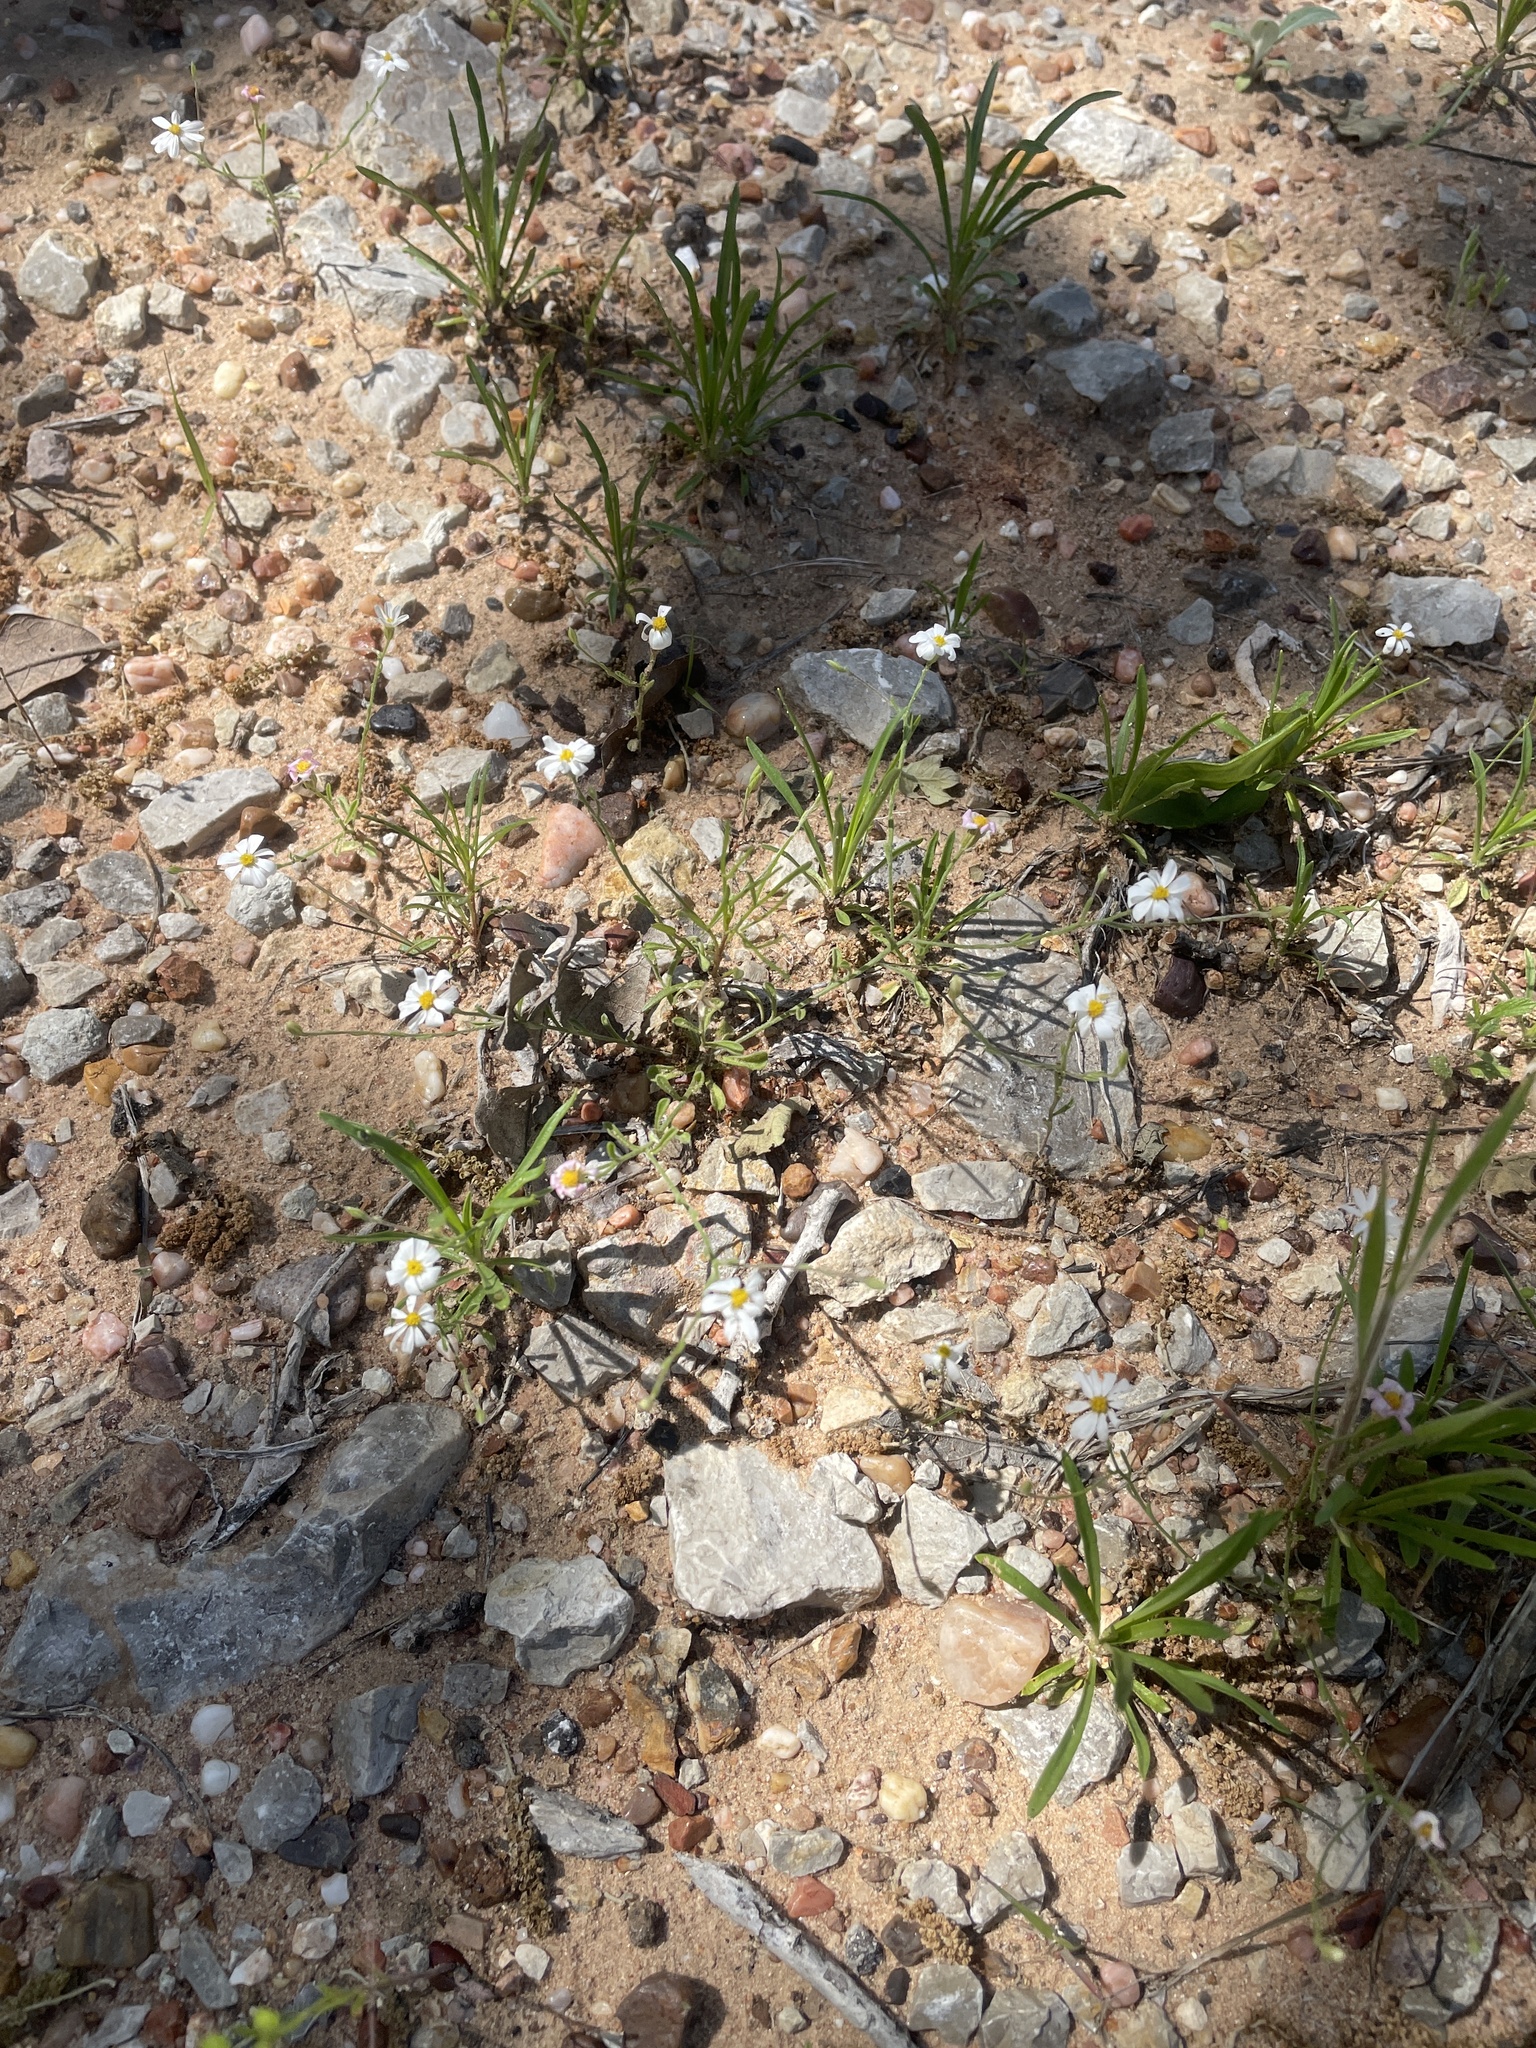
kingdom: Plantae
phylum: Tracheophyta
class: Magnoliopsida
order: Asterales
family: Asteraceae
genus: Chaetopappa
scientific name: Chaetopappa asteroides
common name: Tiny lazy daisy
